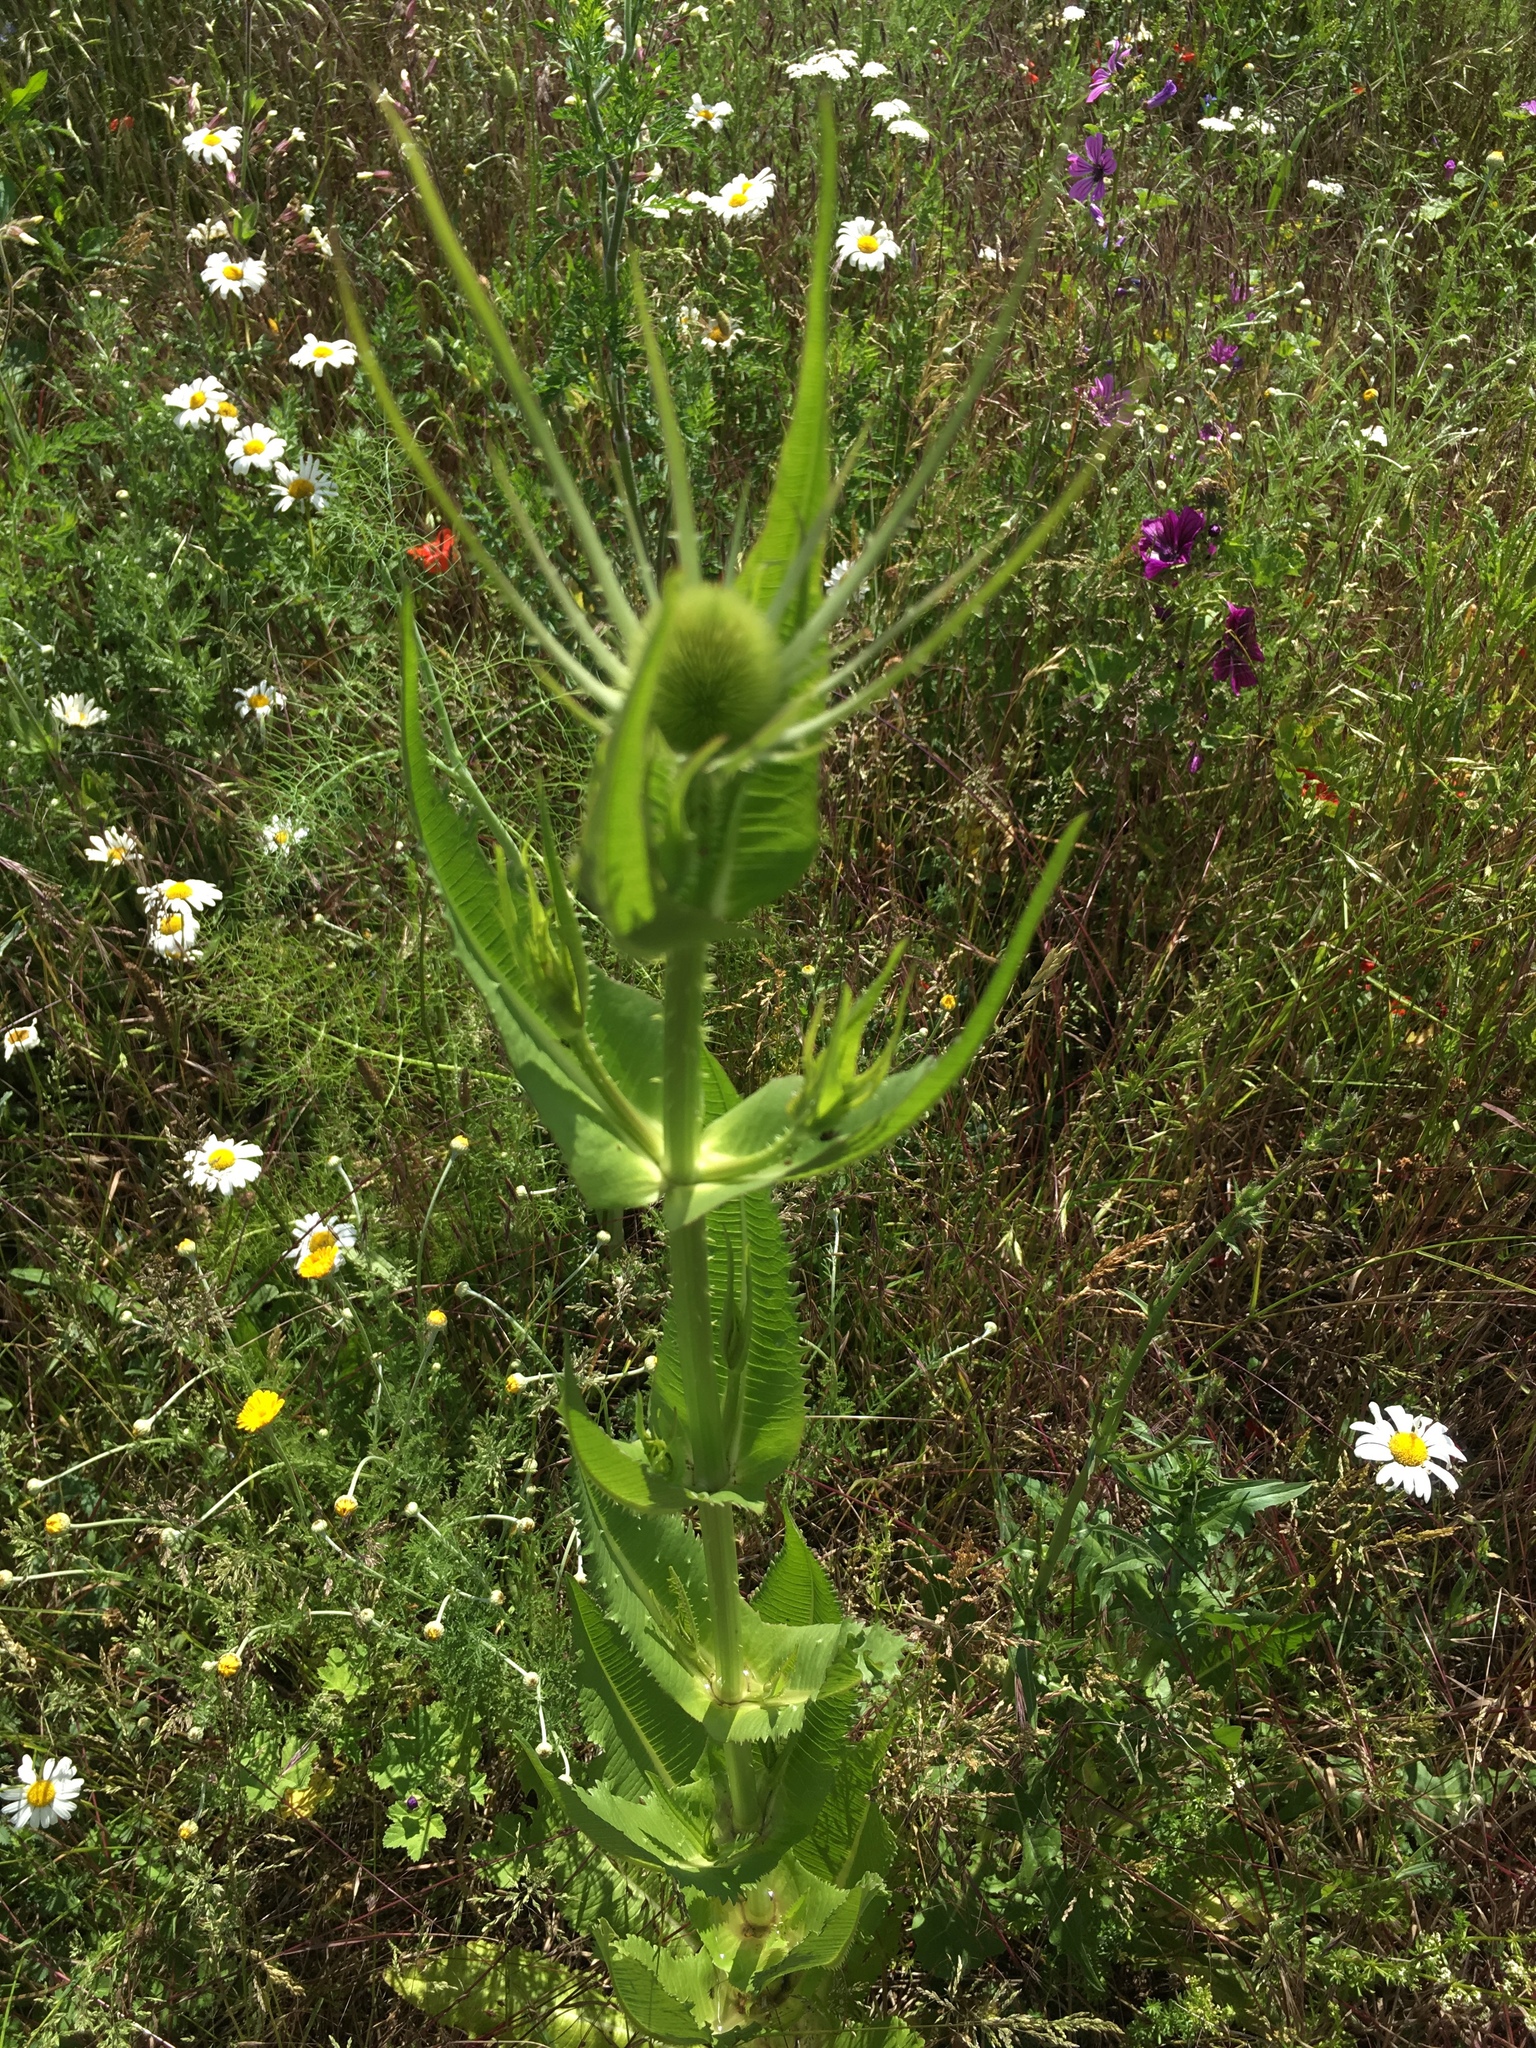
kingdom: Plantae
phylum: Tracheophyta
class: Magnoliopsida
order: Dipsacales
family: Caprifoliaceae
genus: Dipsacus
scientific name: Dipsacus fullonum
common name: Teasel
